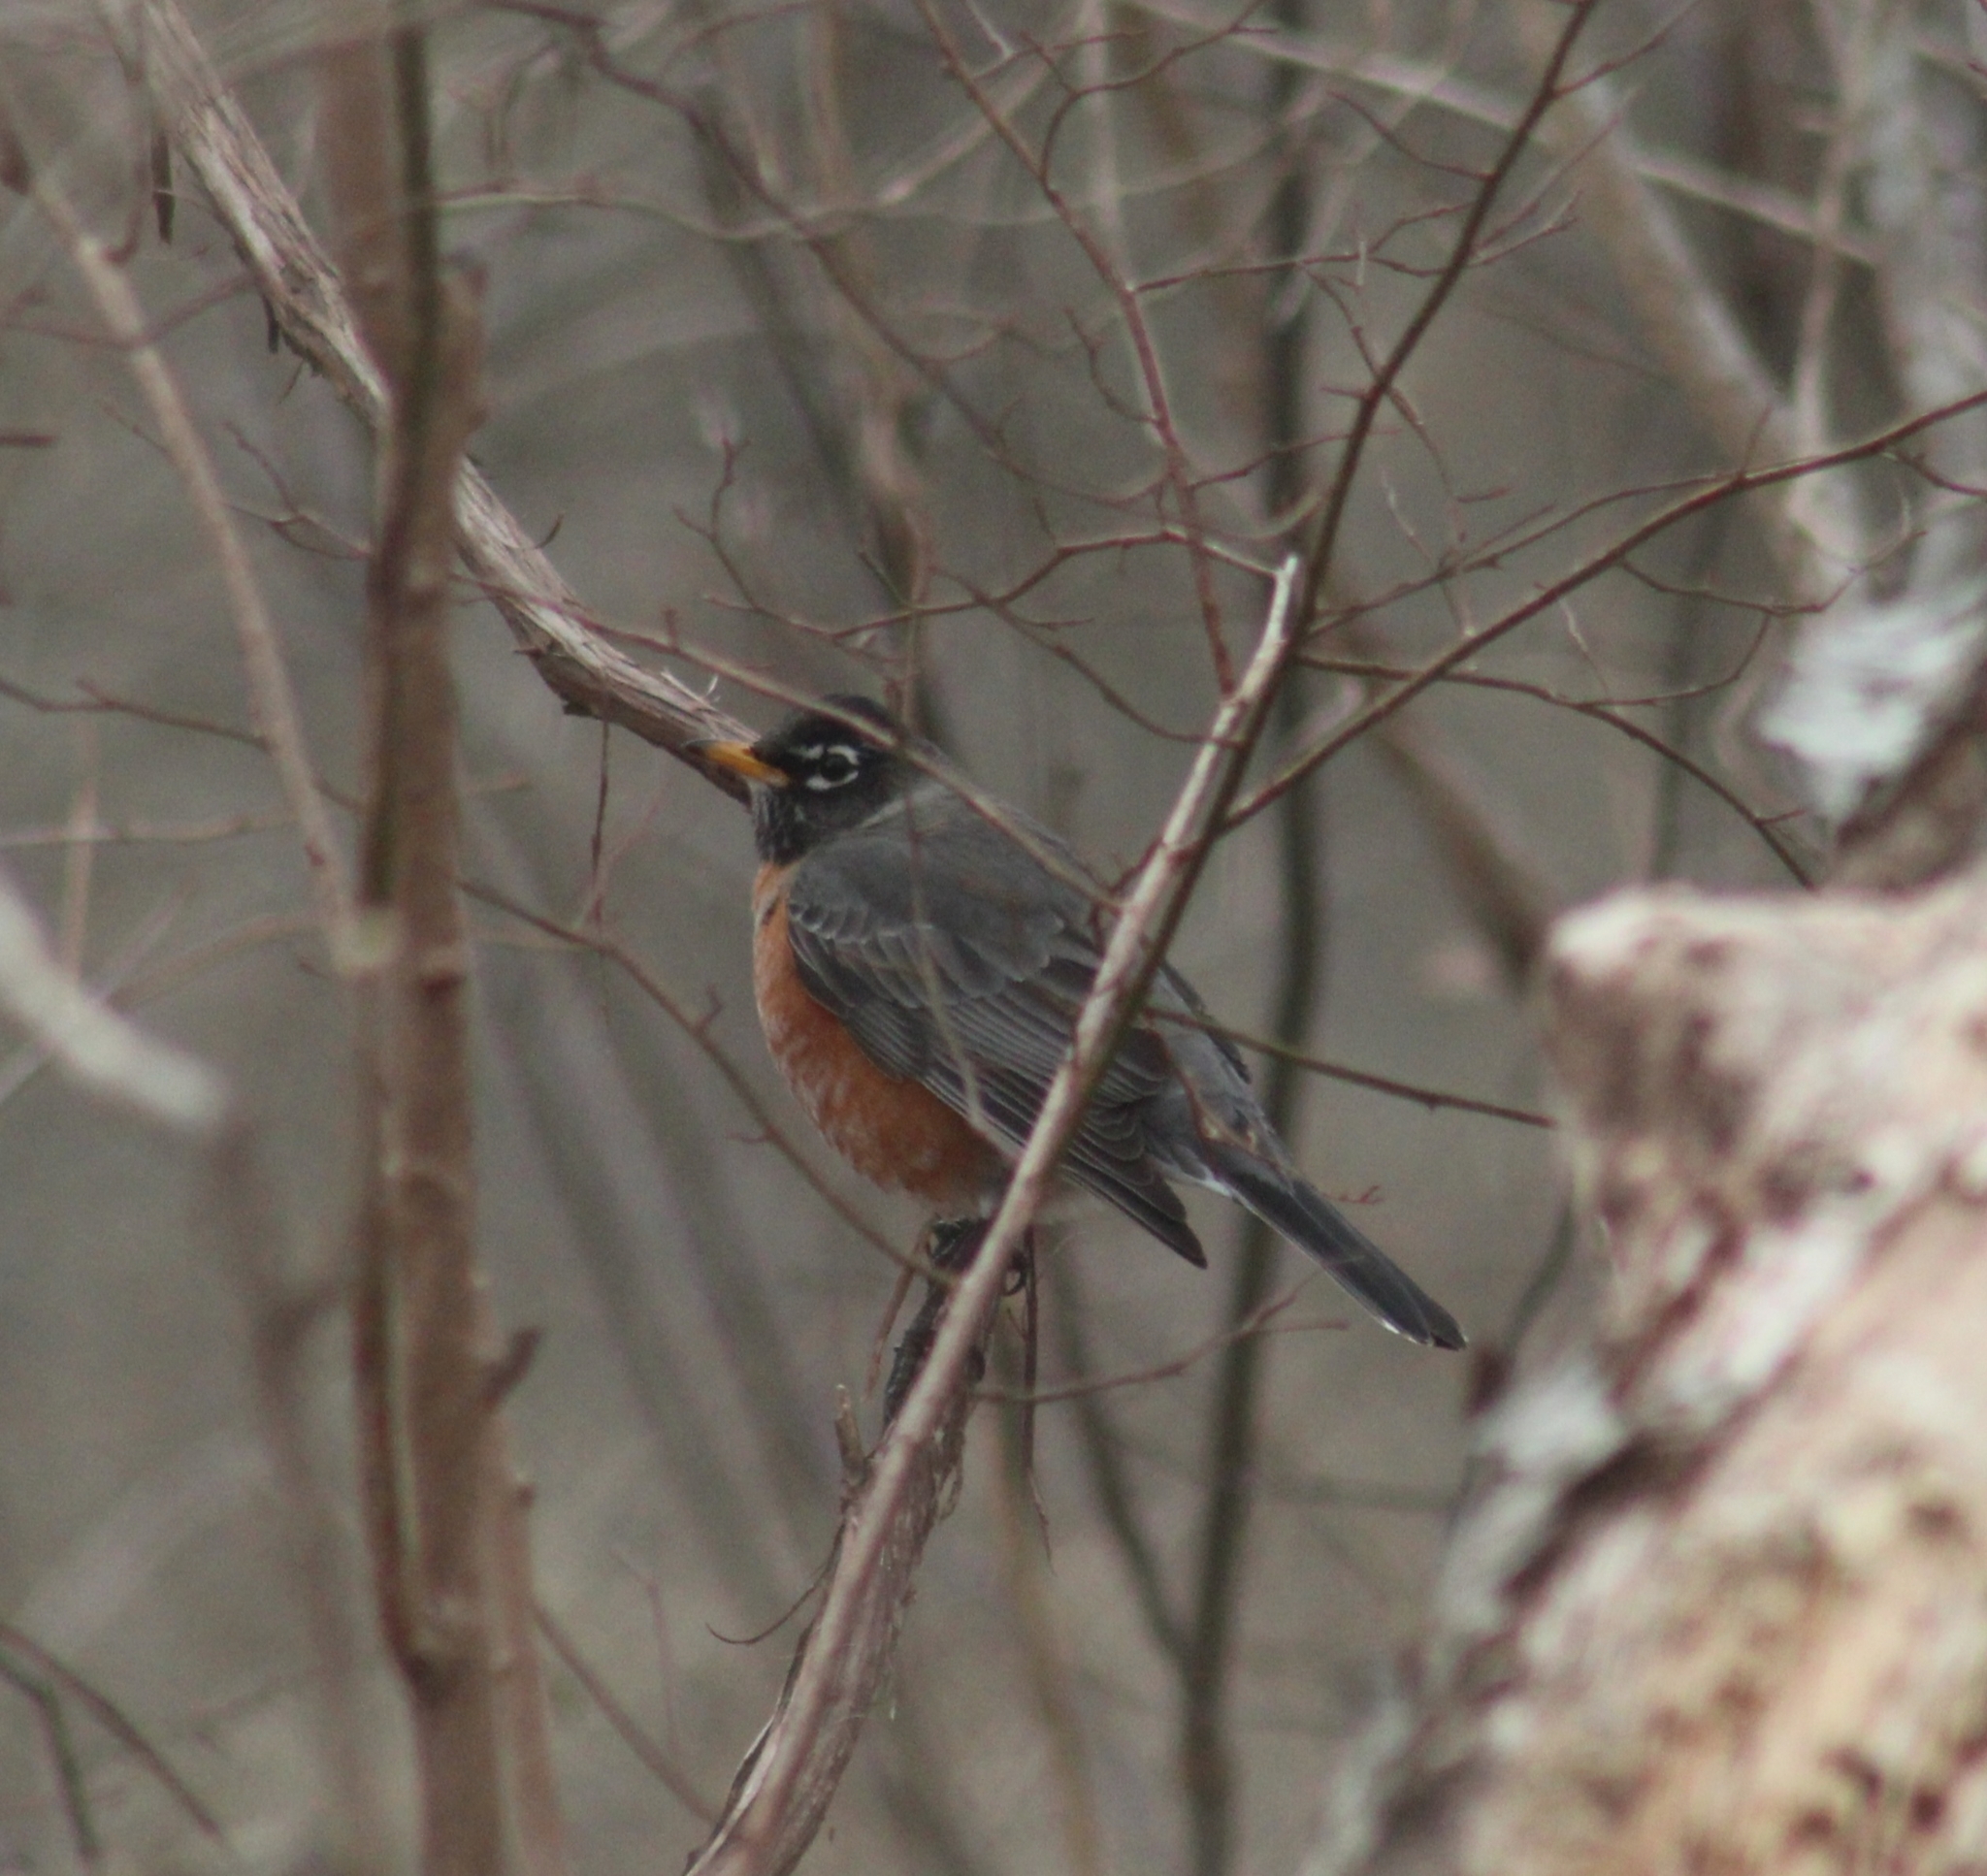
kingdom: Animalia
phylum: Chordata
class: Aves
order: Passeriformes
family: Turdidae
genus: Turdus
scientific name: Turdus migratorius
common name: American robin
